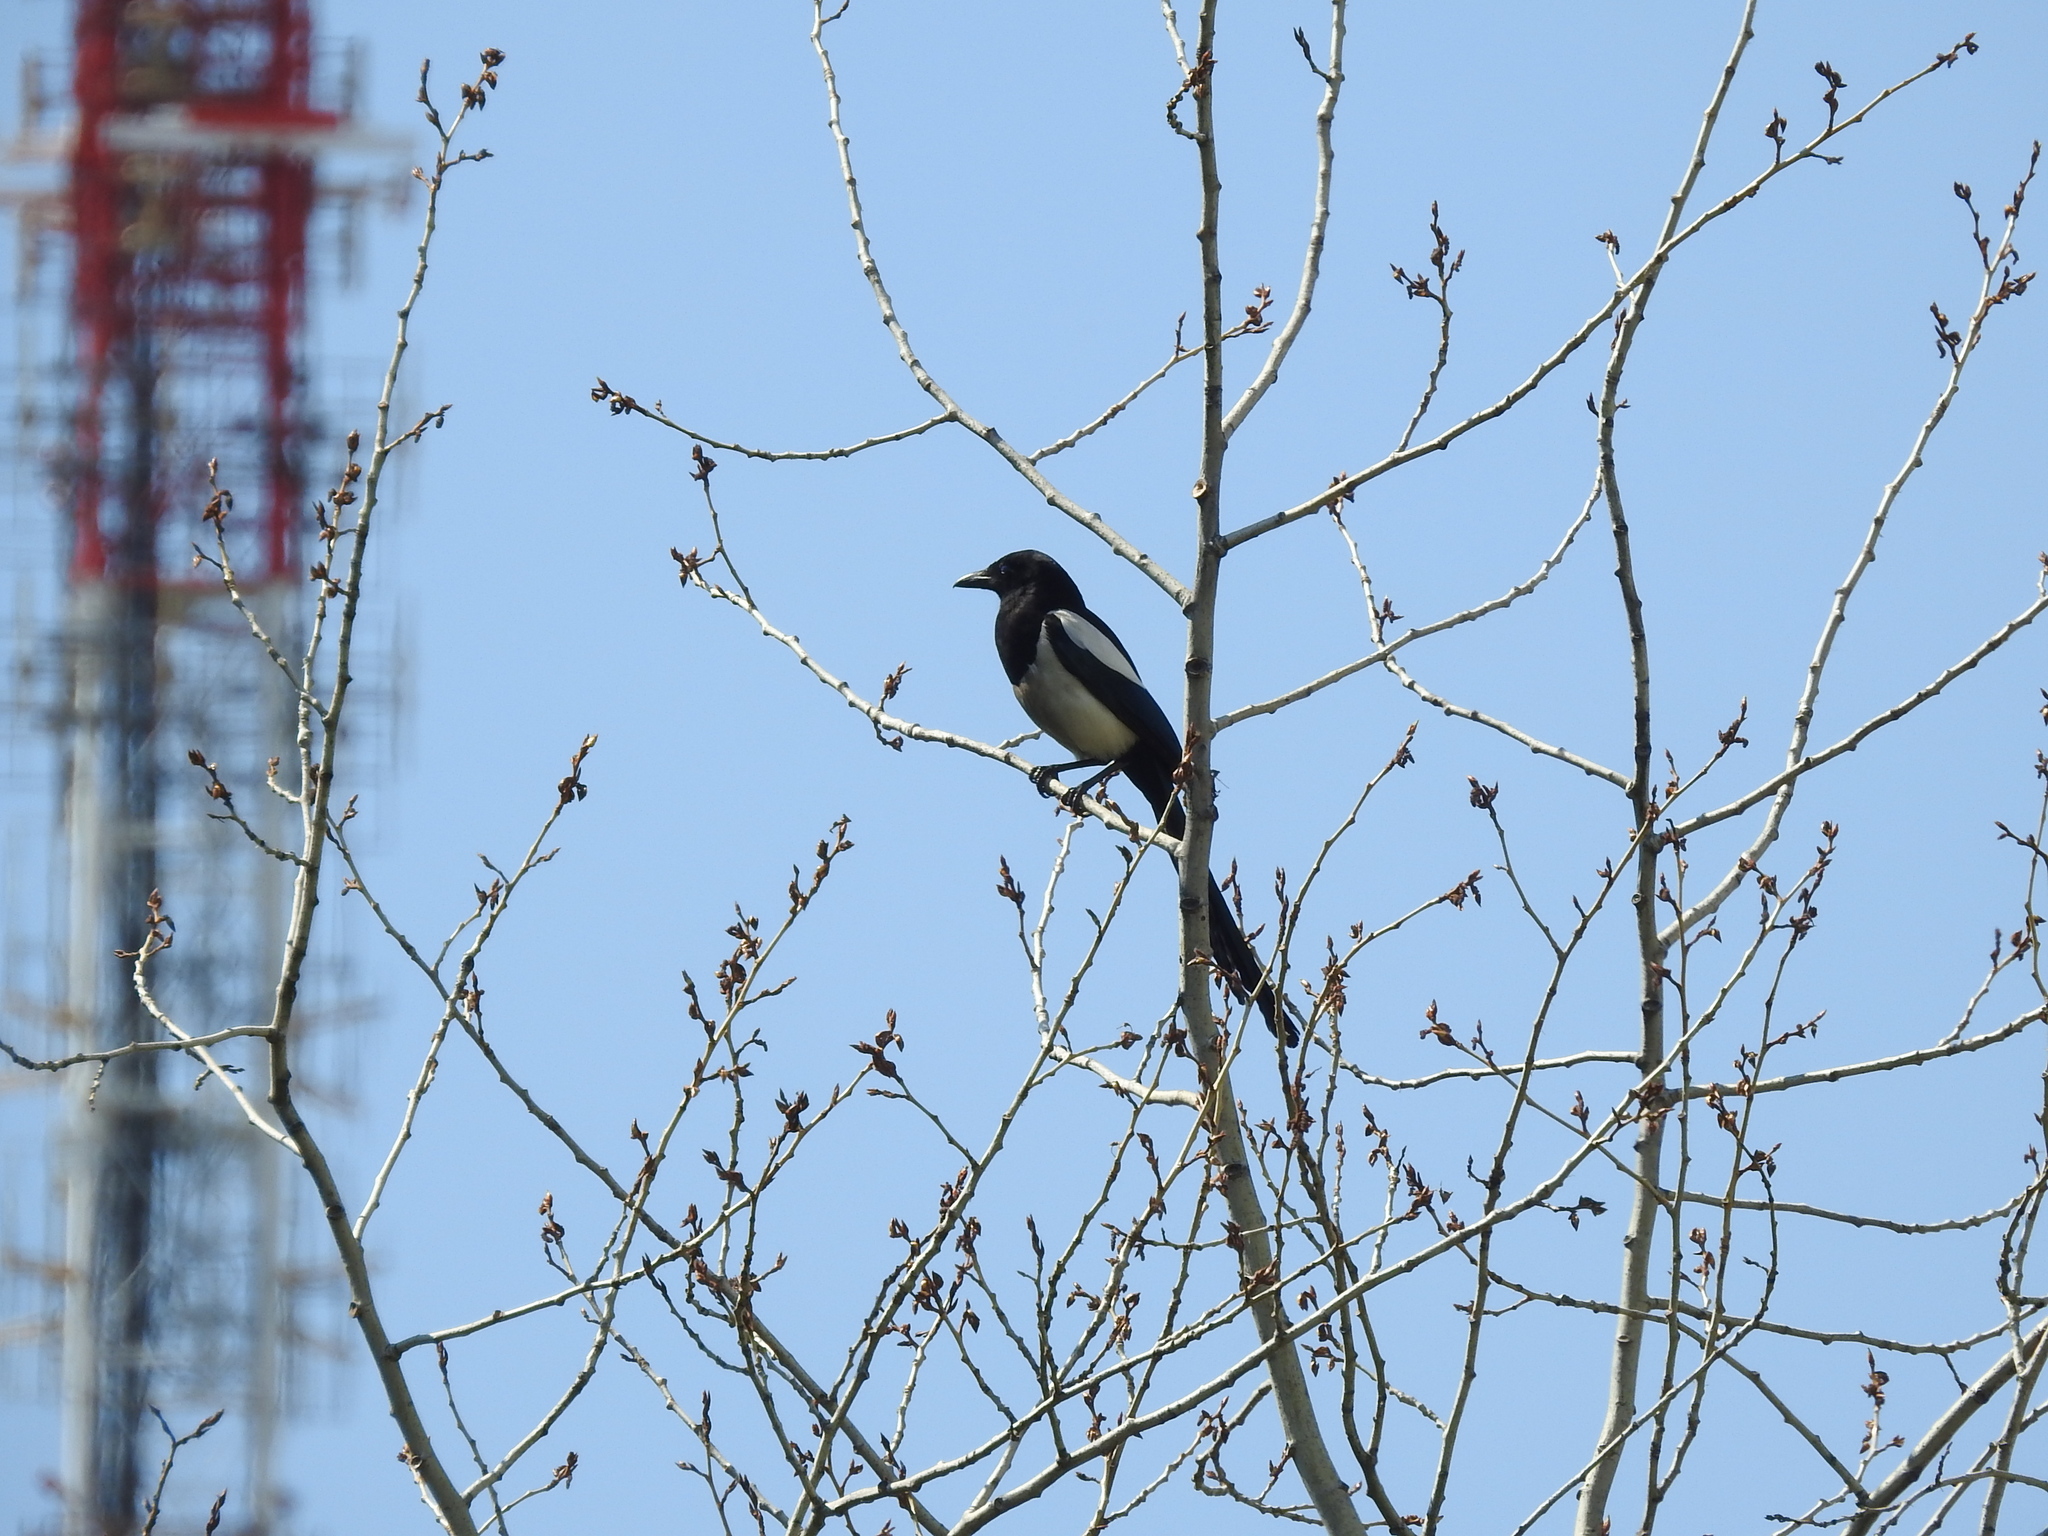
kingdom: Animalia
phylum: Chordata
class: Aves
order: Passeriformes
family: Corvidae
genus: Pica
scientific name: Pica pica
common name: Eurasian magpie
